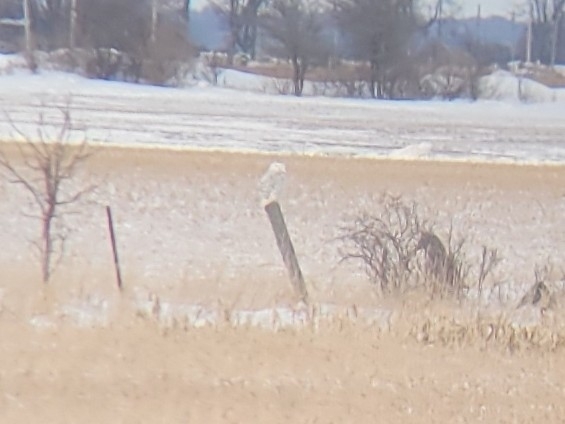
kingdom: Animalia
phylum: Chordata
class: Aves
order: Strigiformes
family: Strigidae
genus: Bubo
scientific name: Bubo scandiacus
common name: Snowy owl
